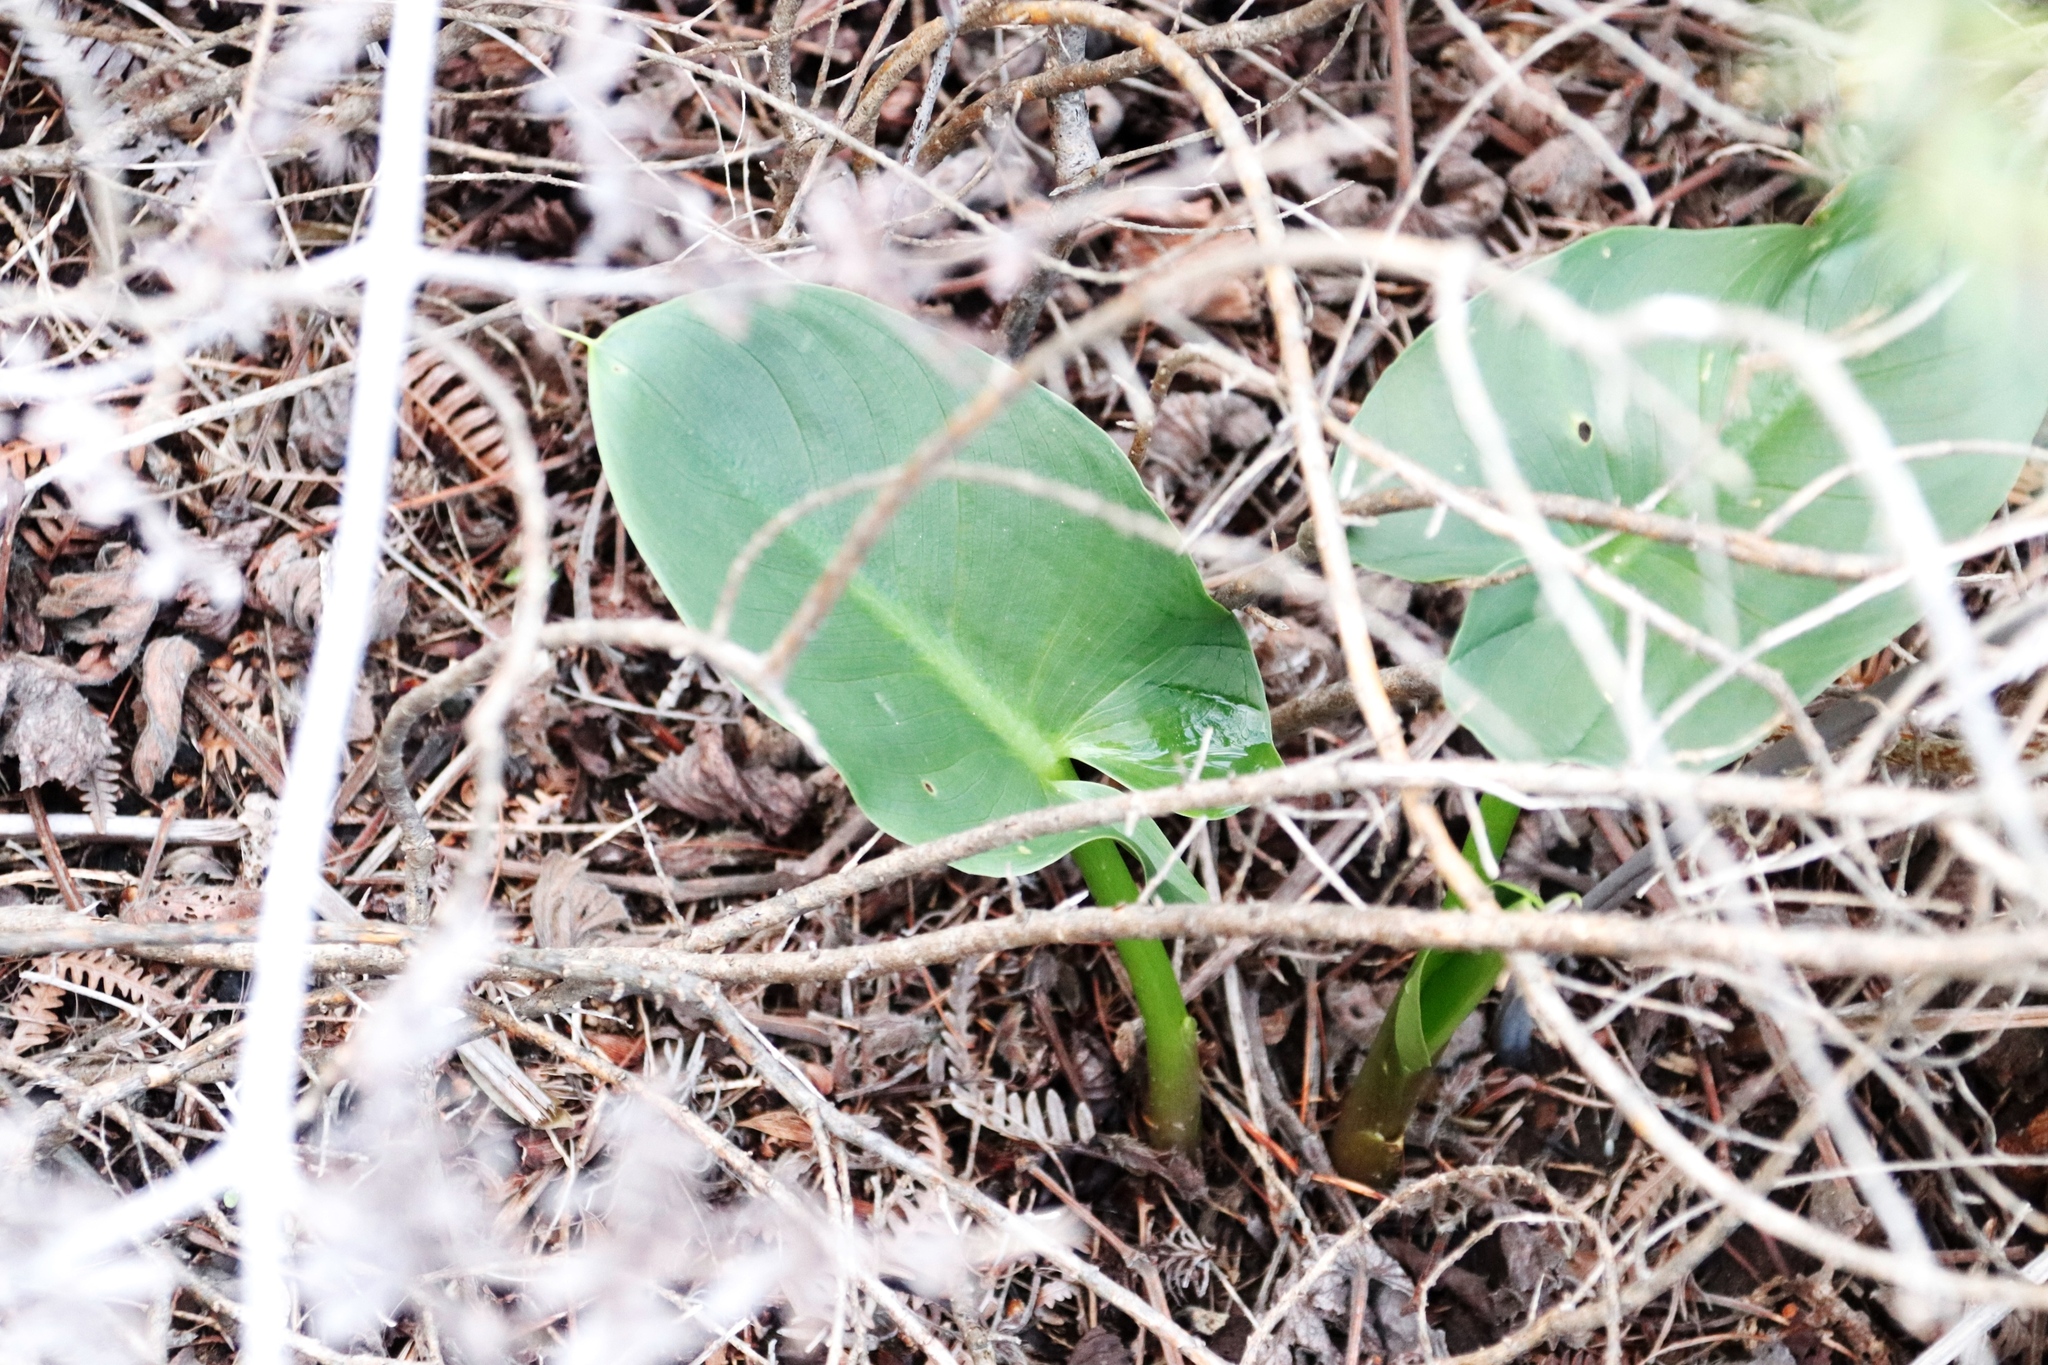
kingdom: Plantae
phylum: Tracheophyta
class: Liliopsida
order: Alismatales
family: Araceae
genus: Zantedeschia
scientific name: Zantedeschia aethiopica
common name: Altar-lily
